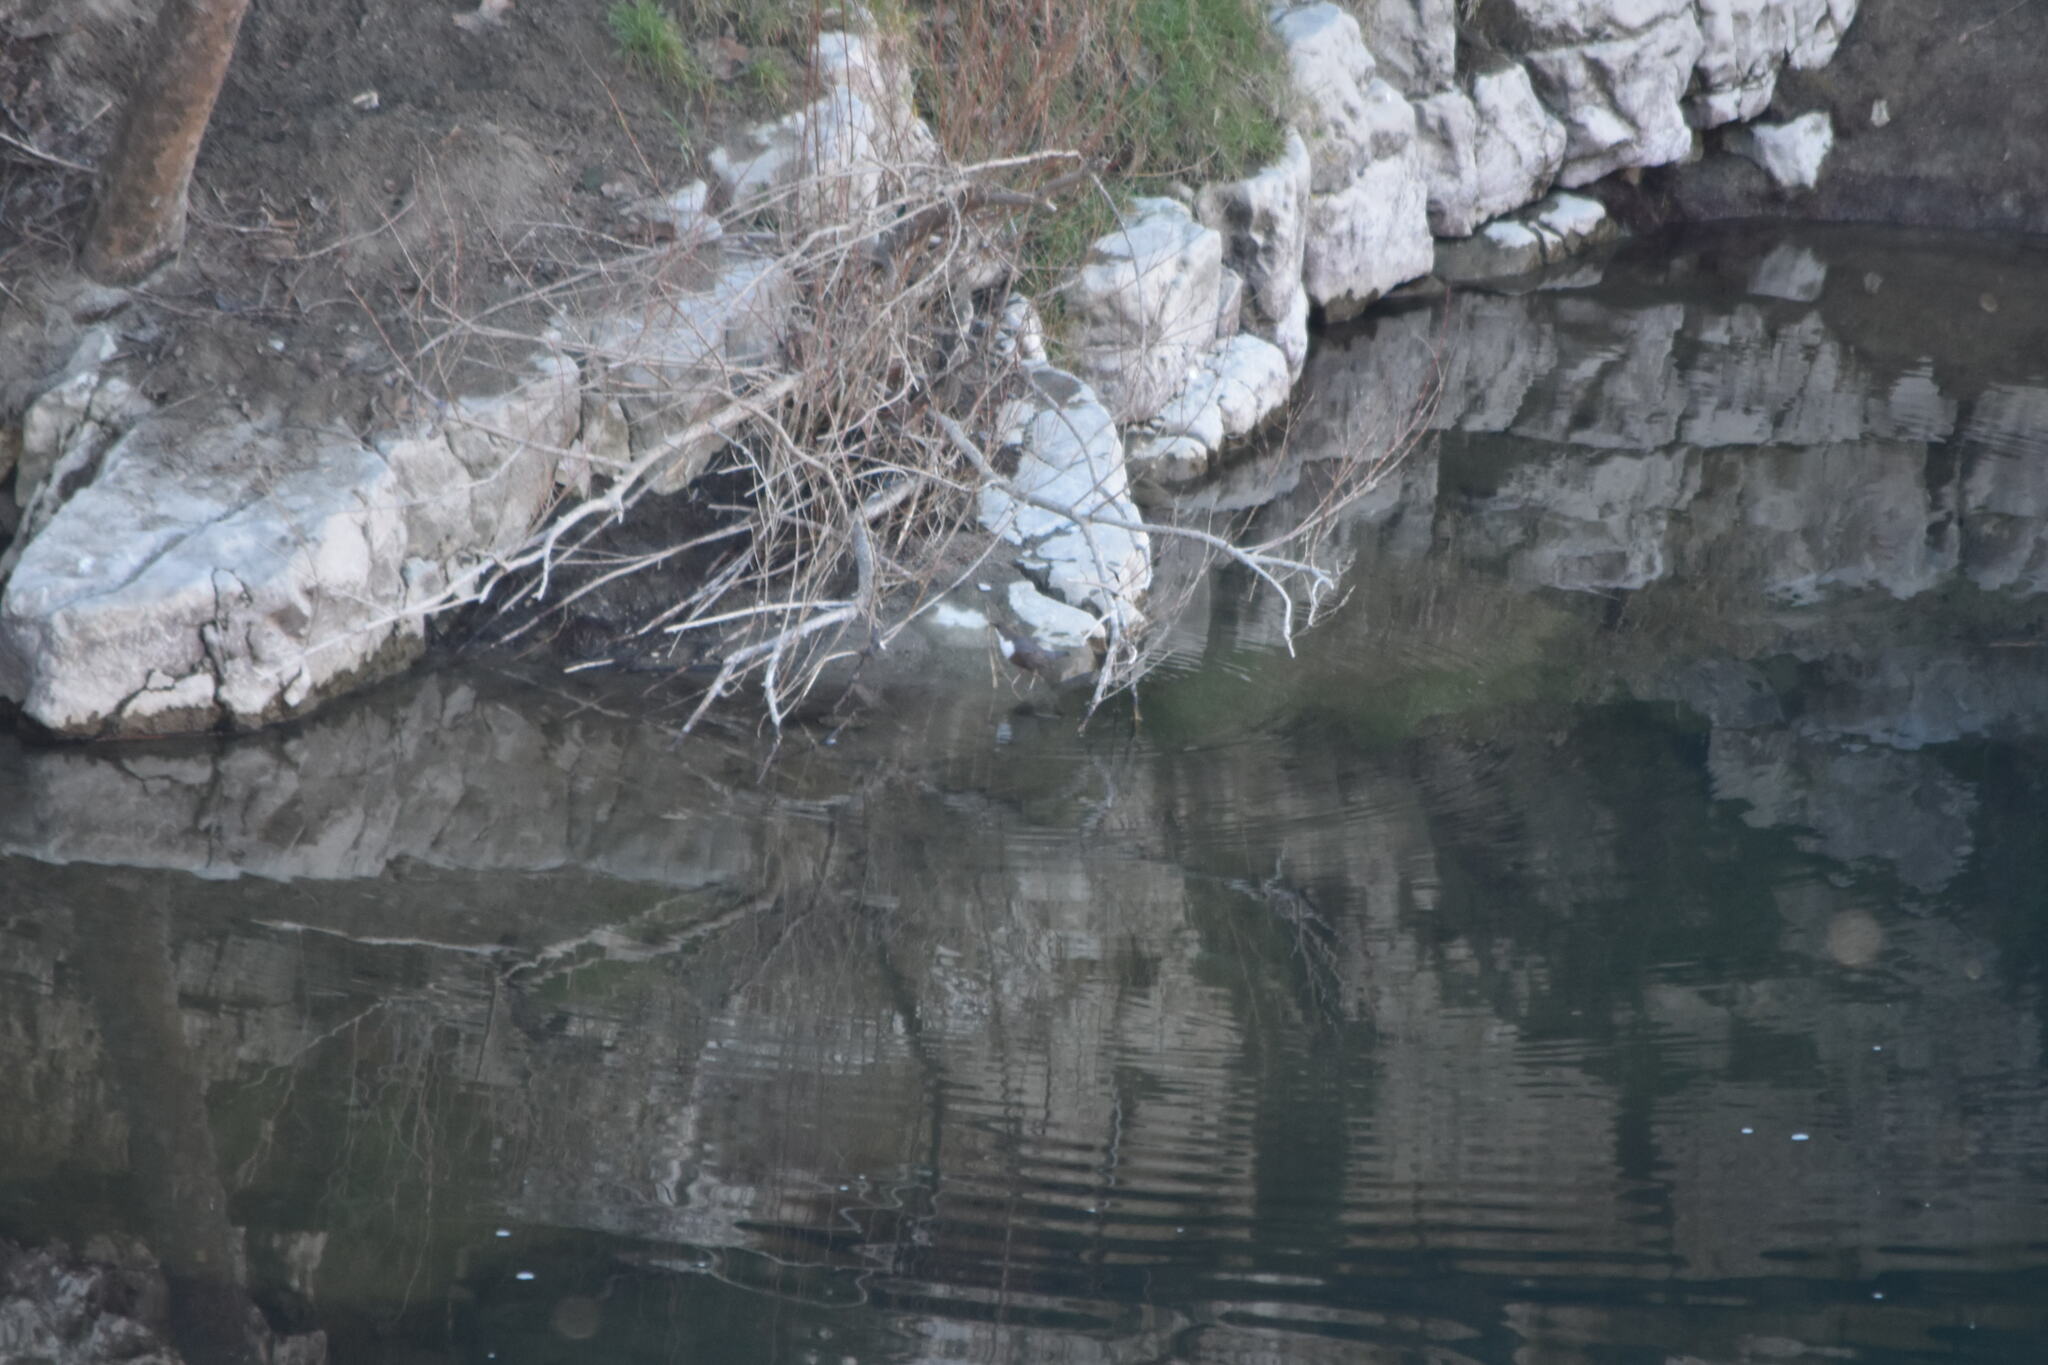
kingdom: Animalia
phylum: Chordata
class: Aves
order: Passeriformes
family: Cinclidae
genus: Cinclus
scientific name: Cinclus cinclus
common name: White-throated dipper
